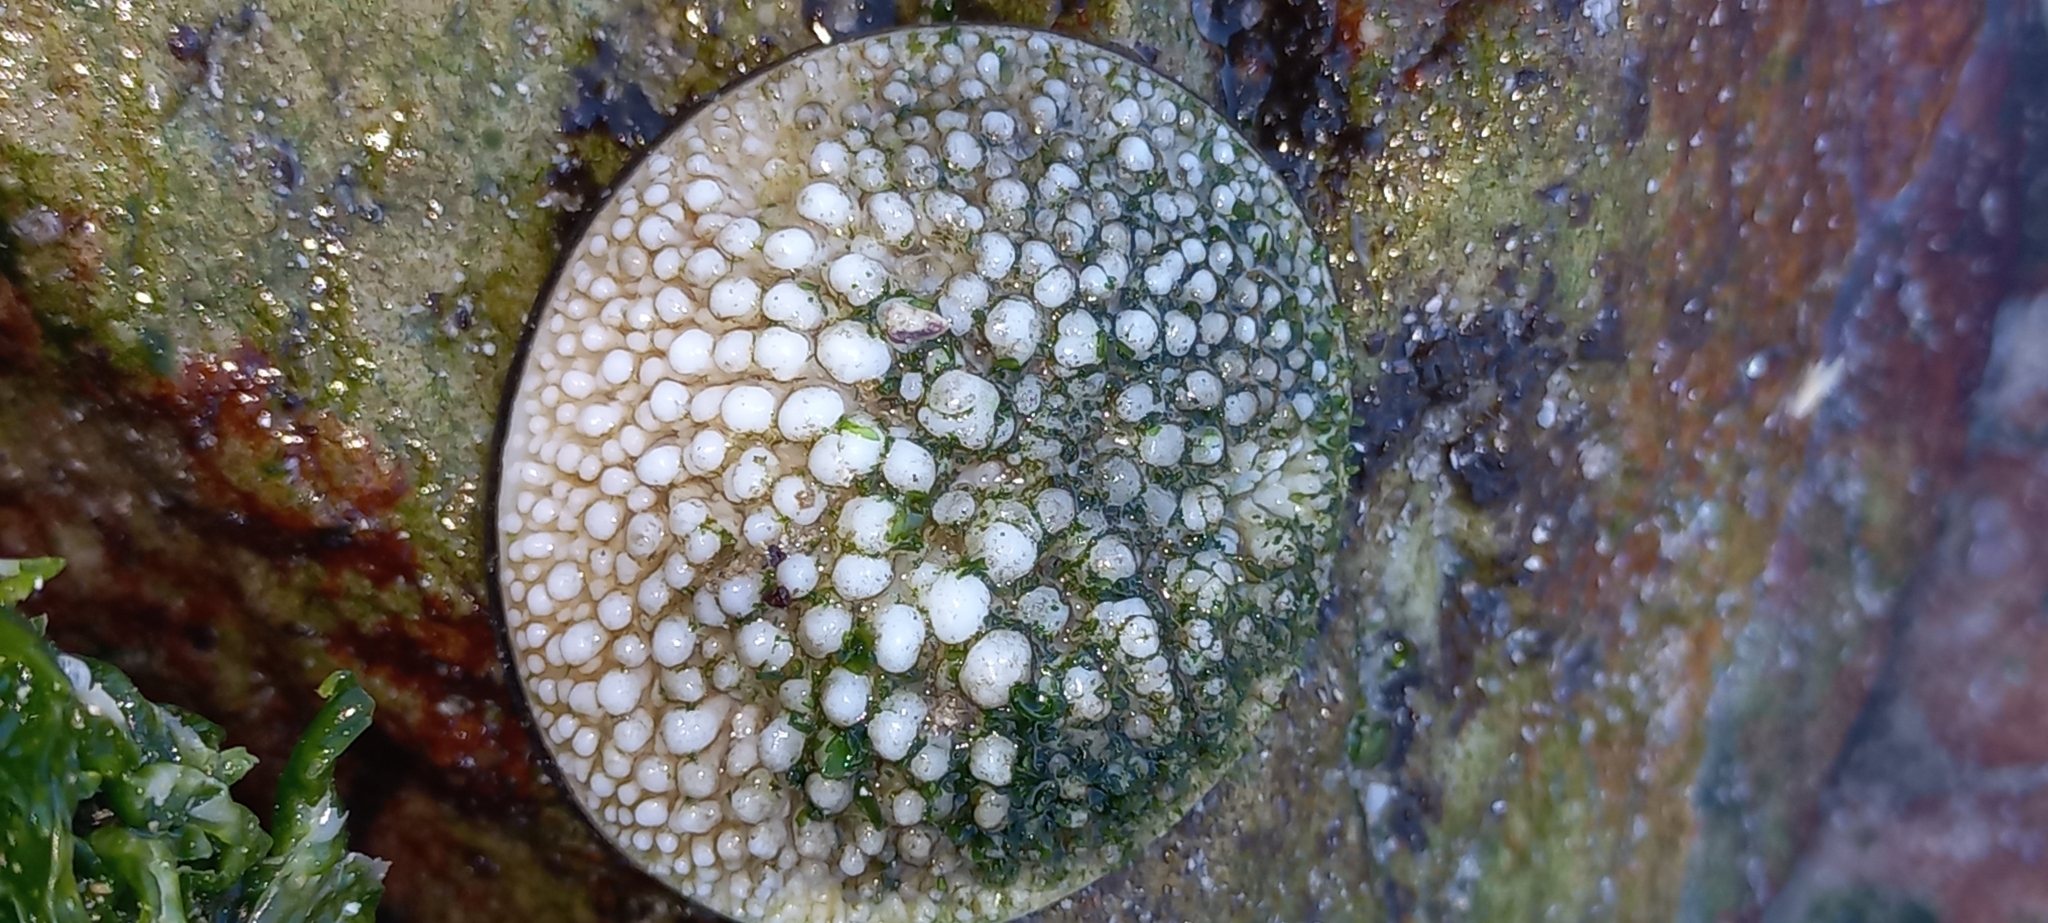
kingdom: Animalia
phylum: Mollusca
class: Gastropoda
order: Trochida
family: Turbinidae
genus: Turbo
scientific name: Turbo sarmaticus
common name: South african turban
